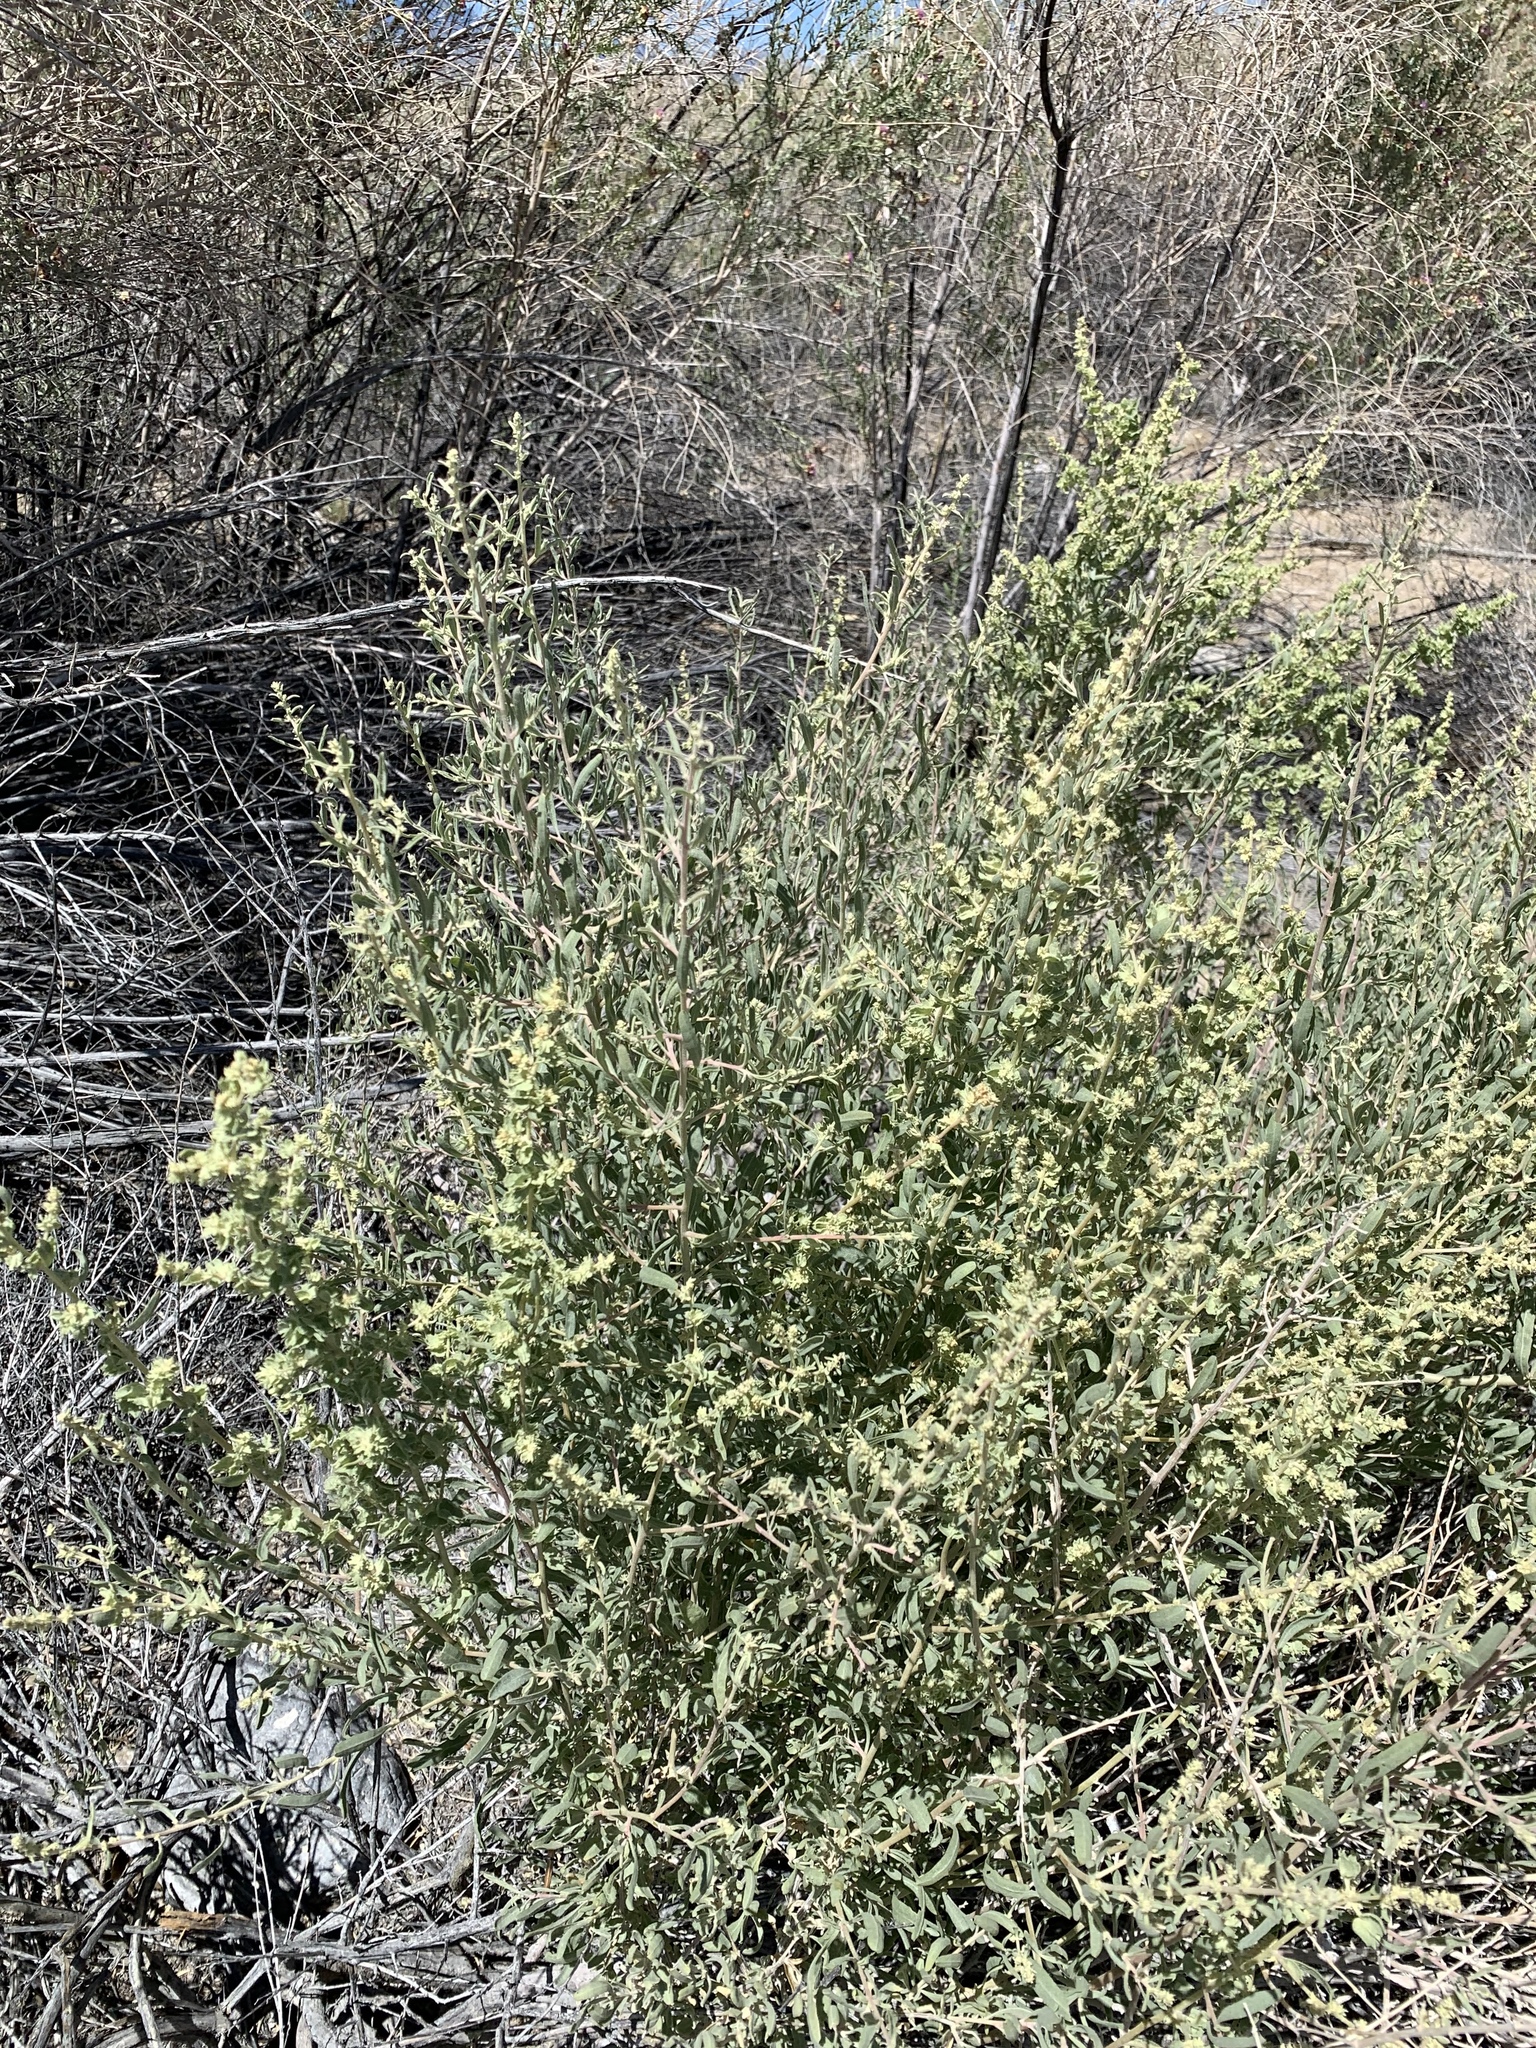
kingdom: Plantae
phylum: Tracheophyta
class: Magnoliopsida
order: Caryophyllales
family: Amaranthaceae
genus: Atriplex
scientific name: Atriplex canescens
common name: Four-wing saltbush
